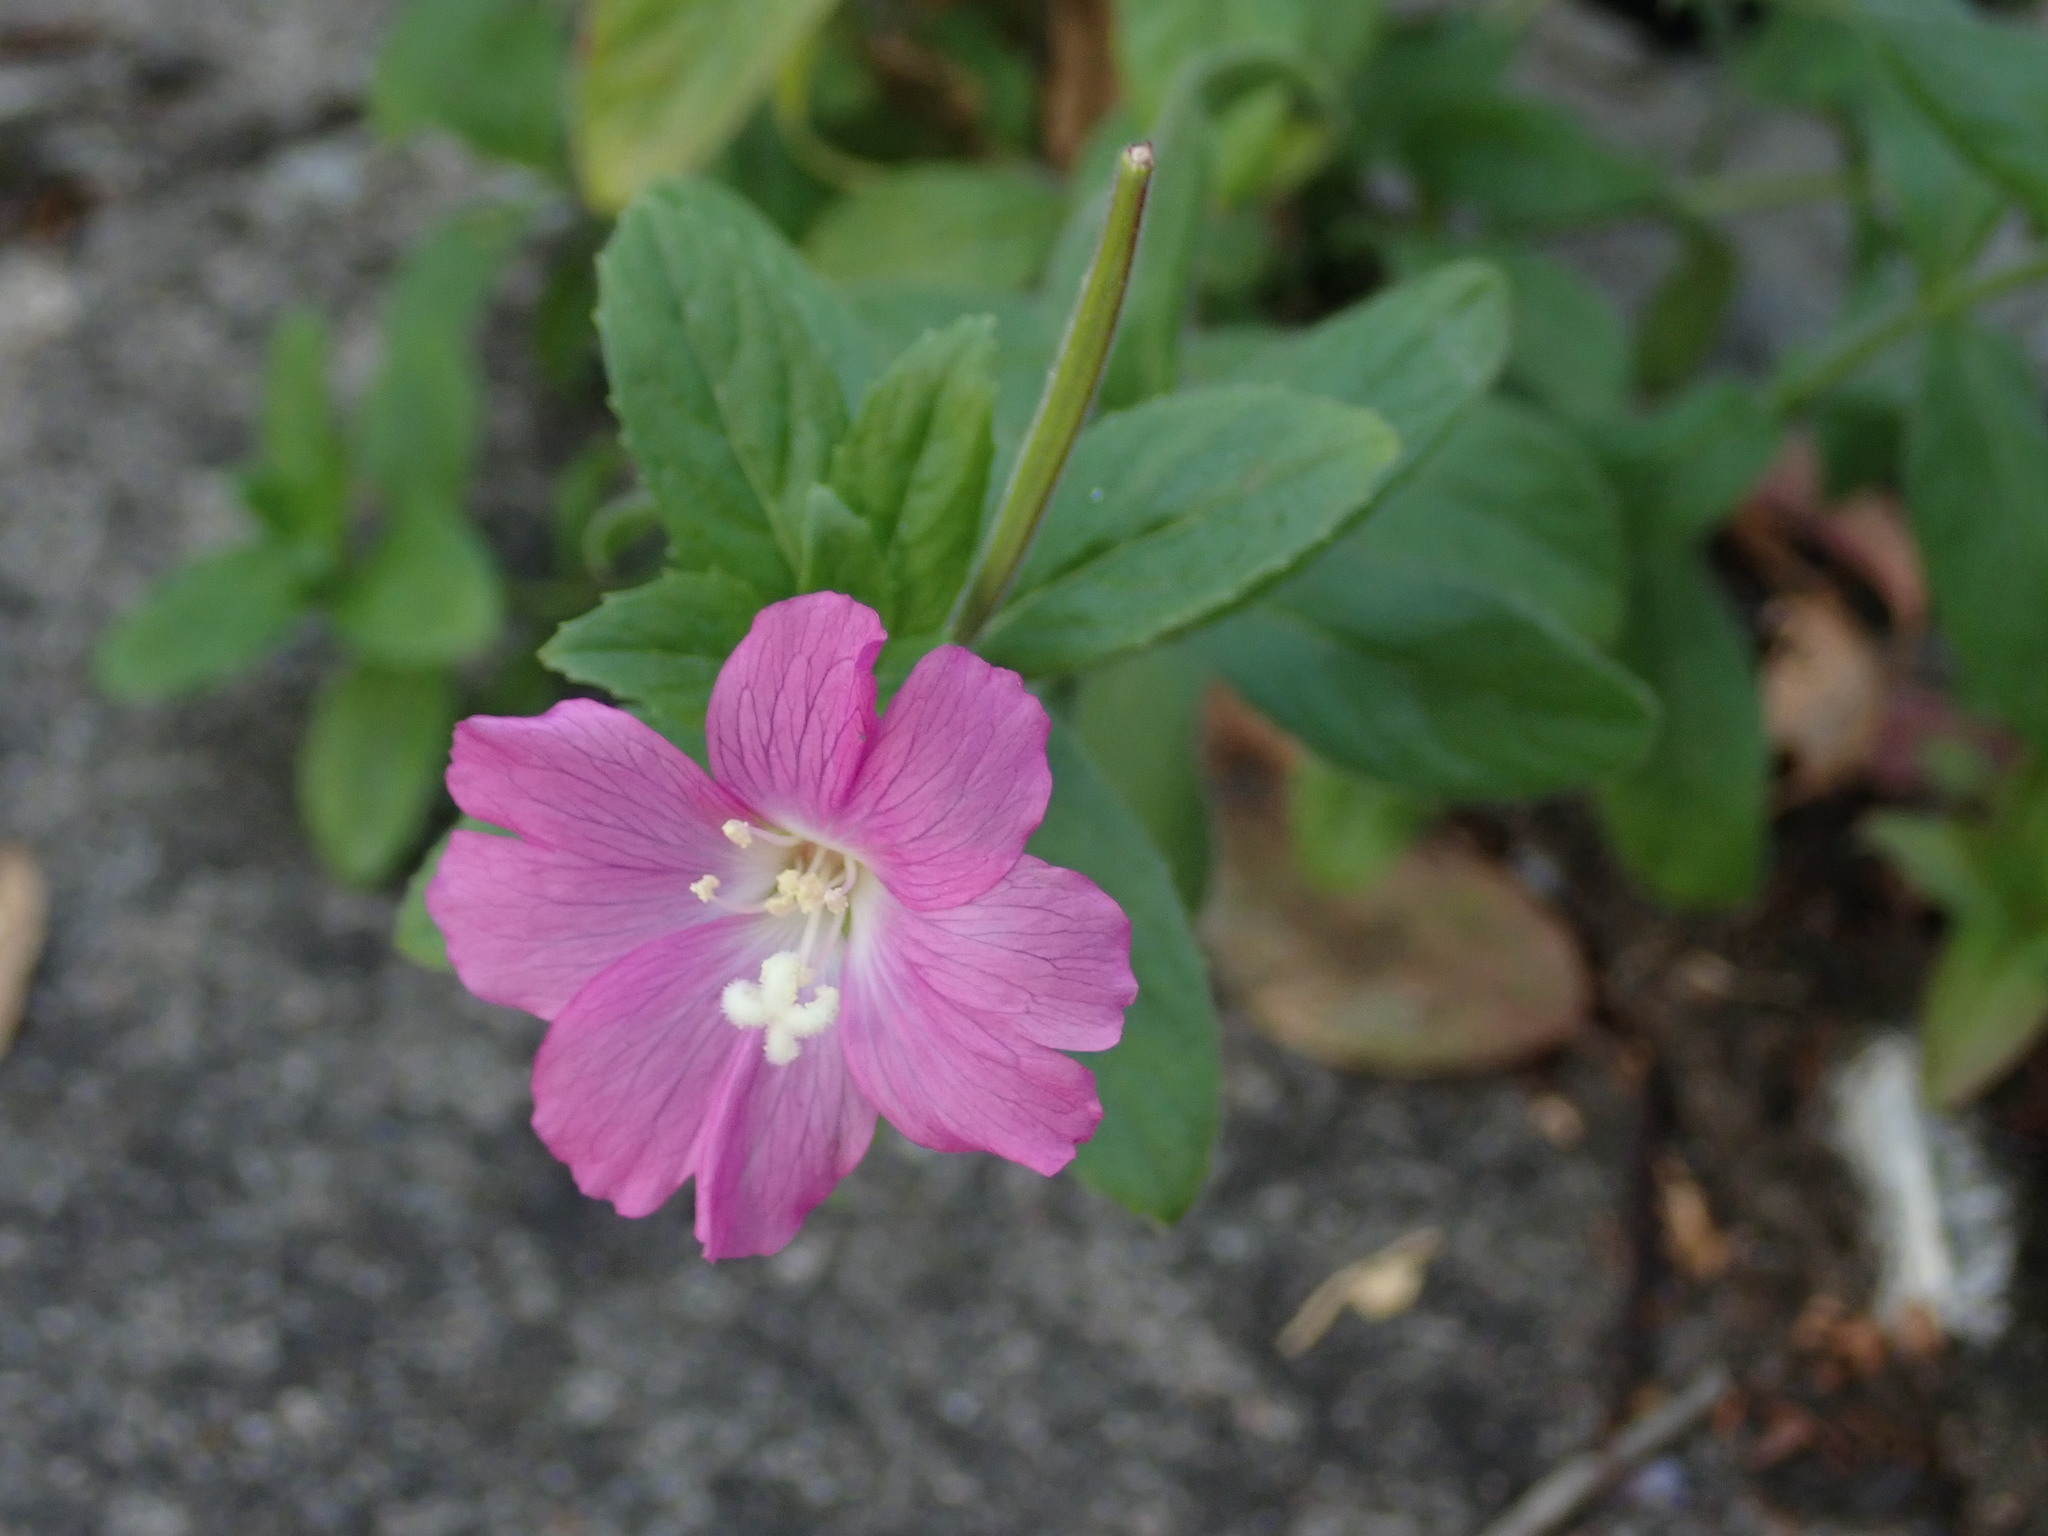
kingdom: Plantae
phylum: Tracheophyta
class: Magnoliopsida
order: Myrtales
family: Onagraceae
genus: Epilobium
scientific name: Epilobium hirsutum
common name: Great willowherb
